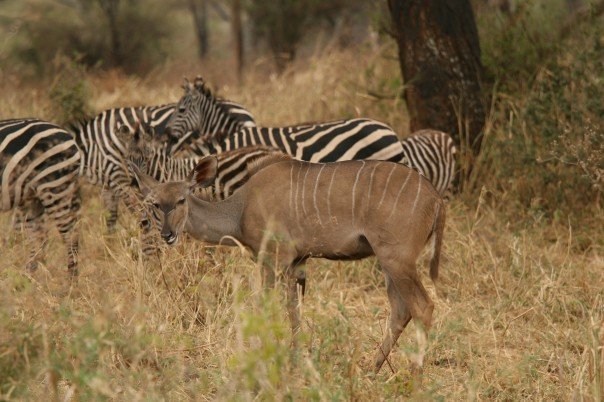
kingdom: Animalia
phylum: Chordata
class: Mammalia
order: Artiodactyla
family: Bovidae
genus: Tragelaphus
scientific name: Tragelaphus strepsiceros
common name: Greater kudu
